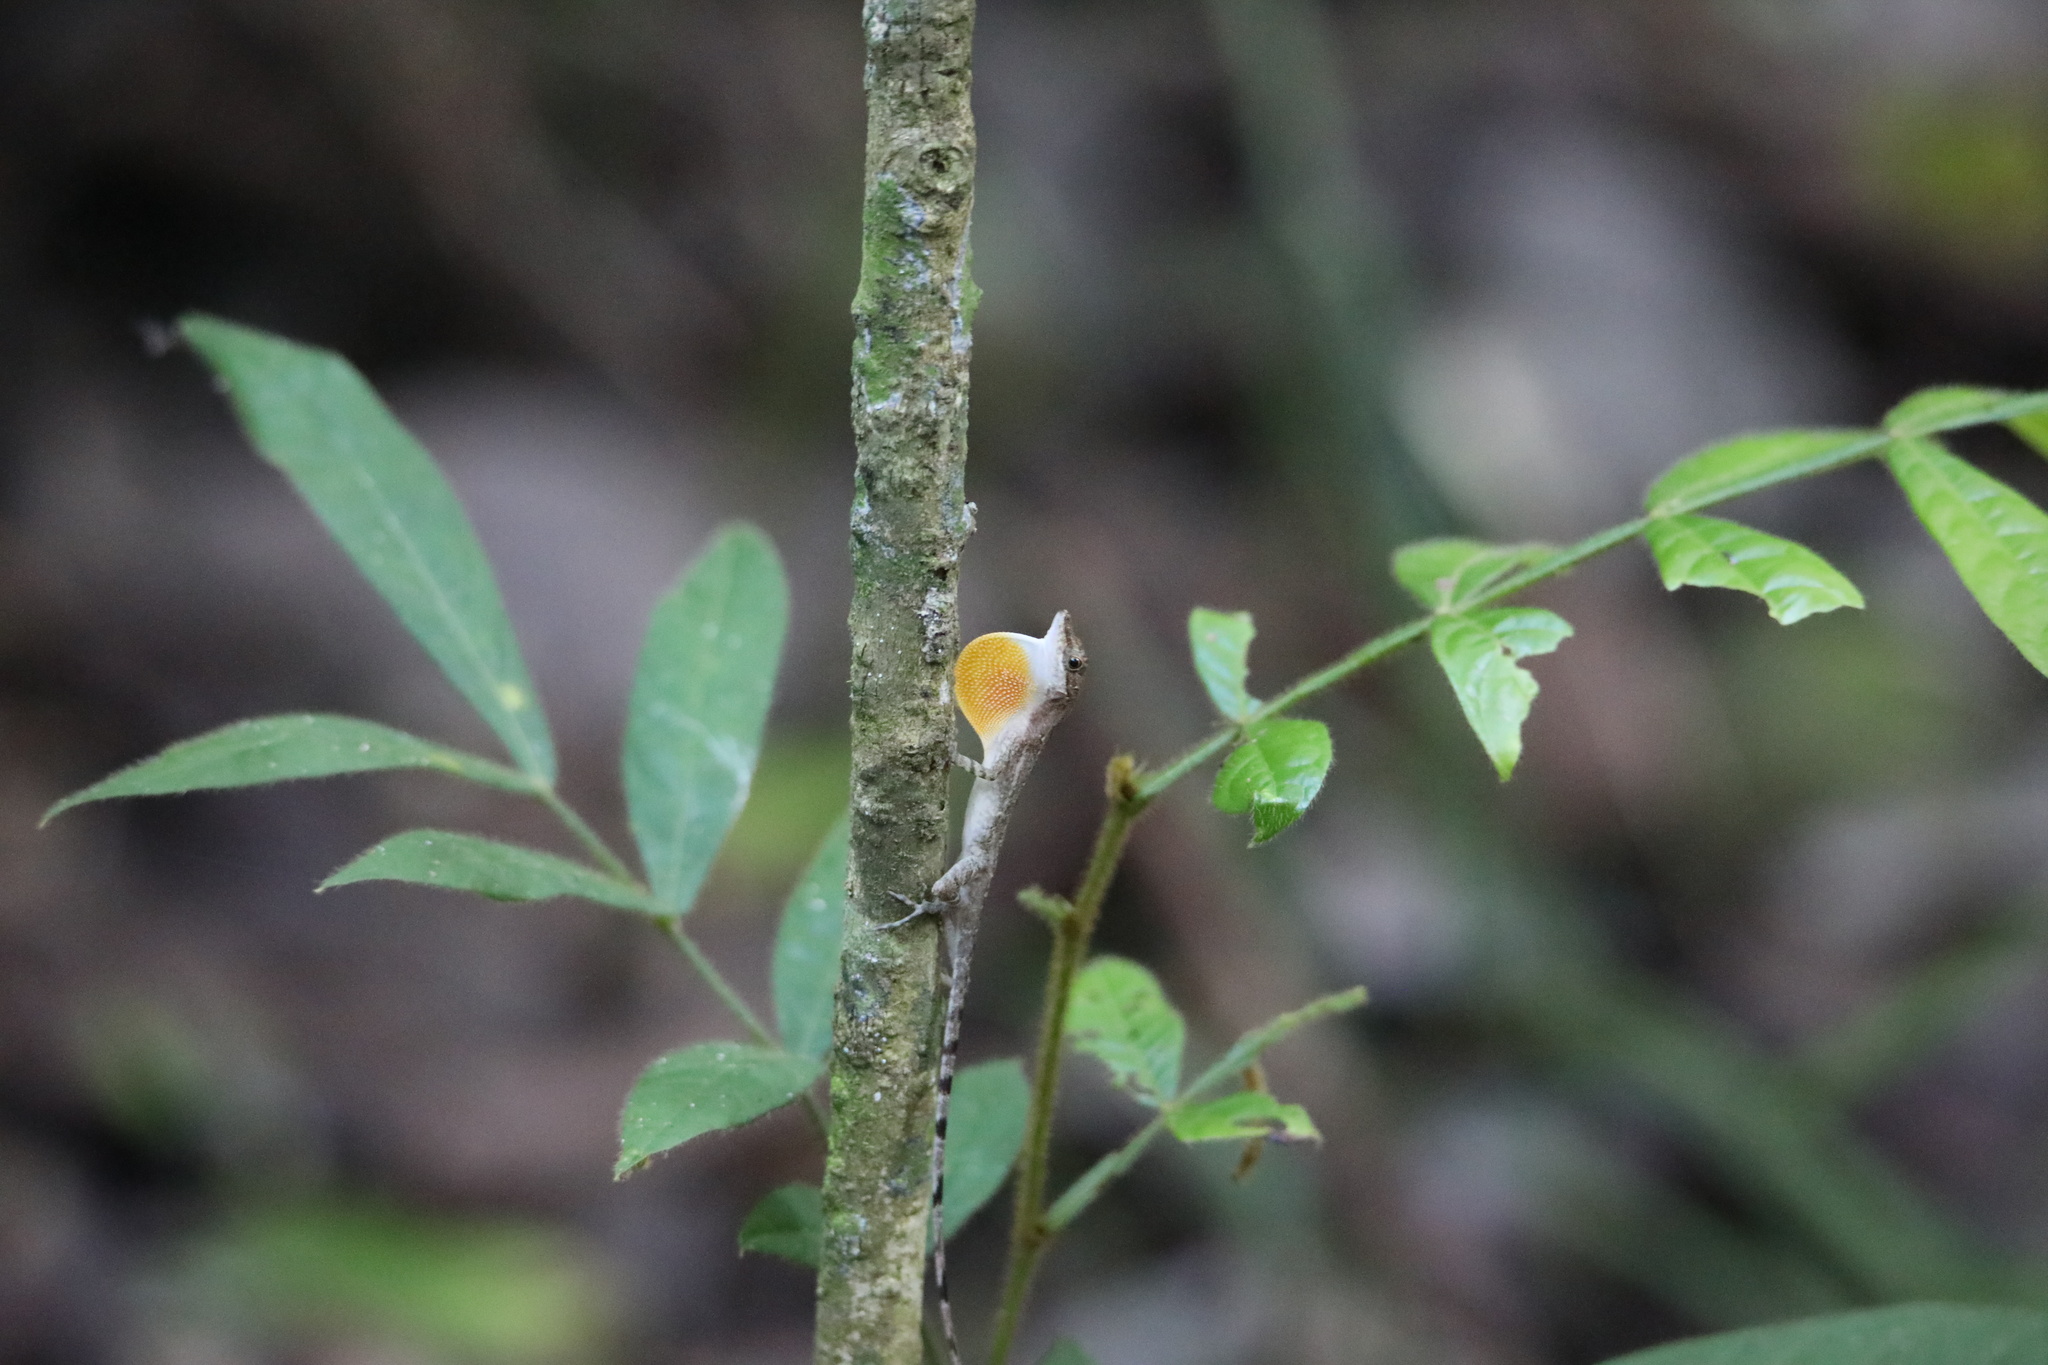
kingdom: Animalia
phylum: Chordata
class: Squamata
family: Dactyloidae
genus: Anolis
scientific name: Anolis apletophallus
